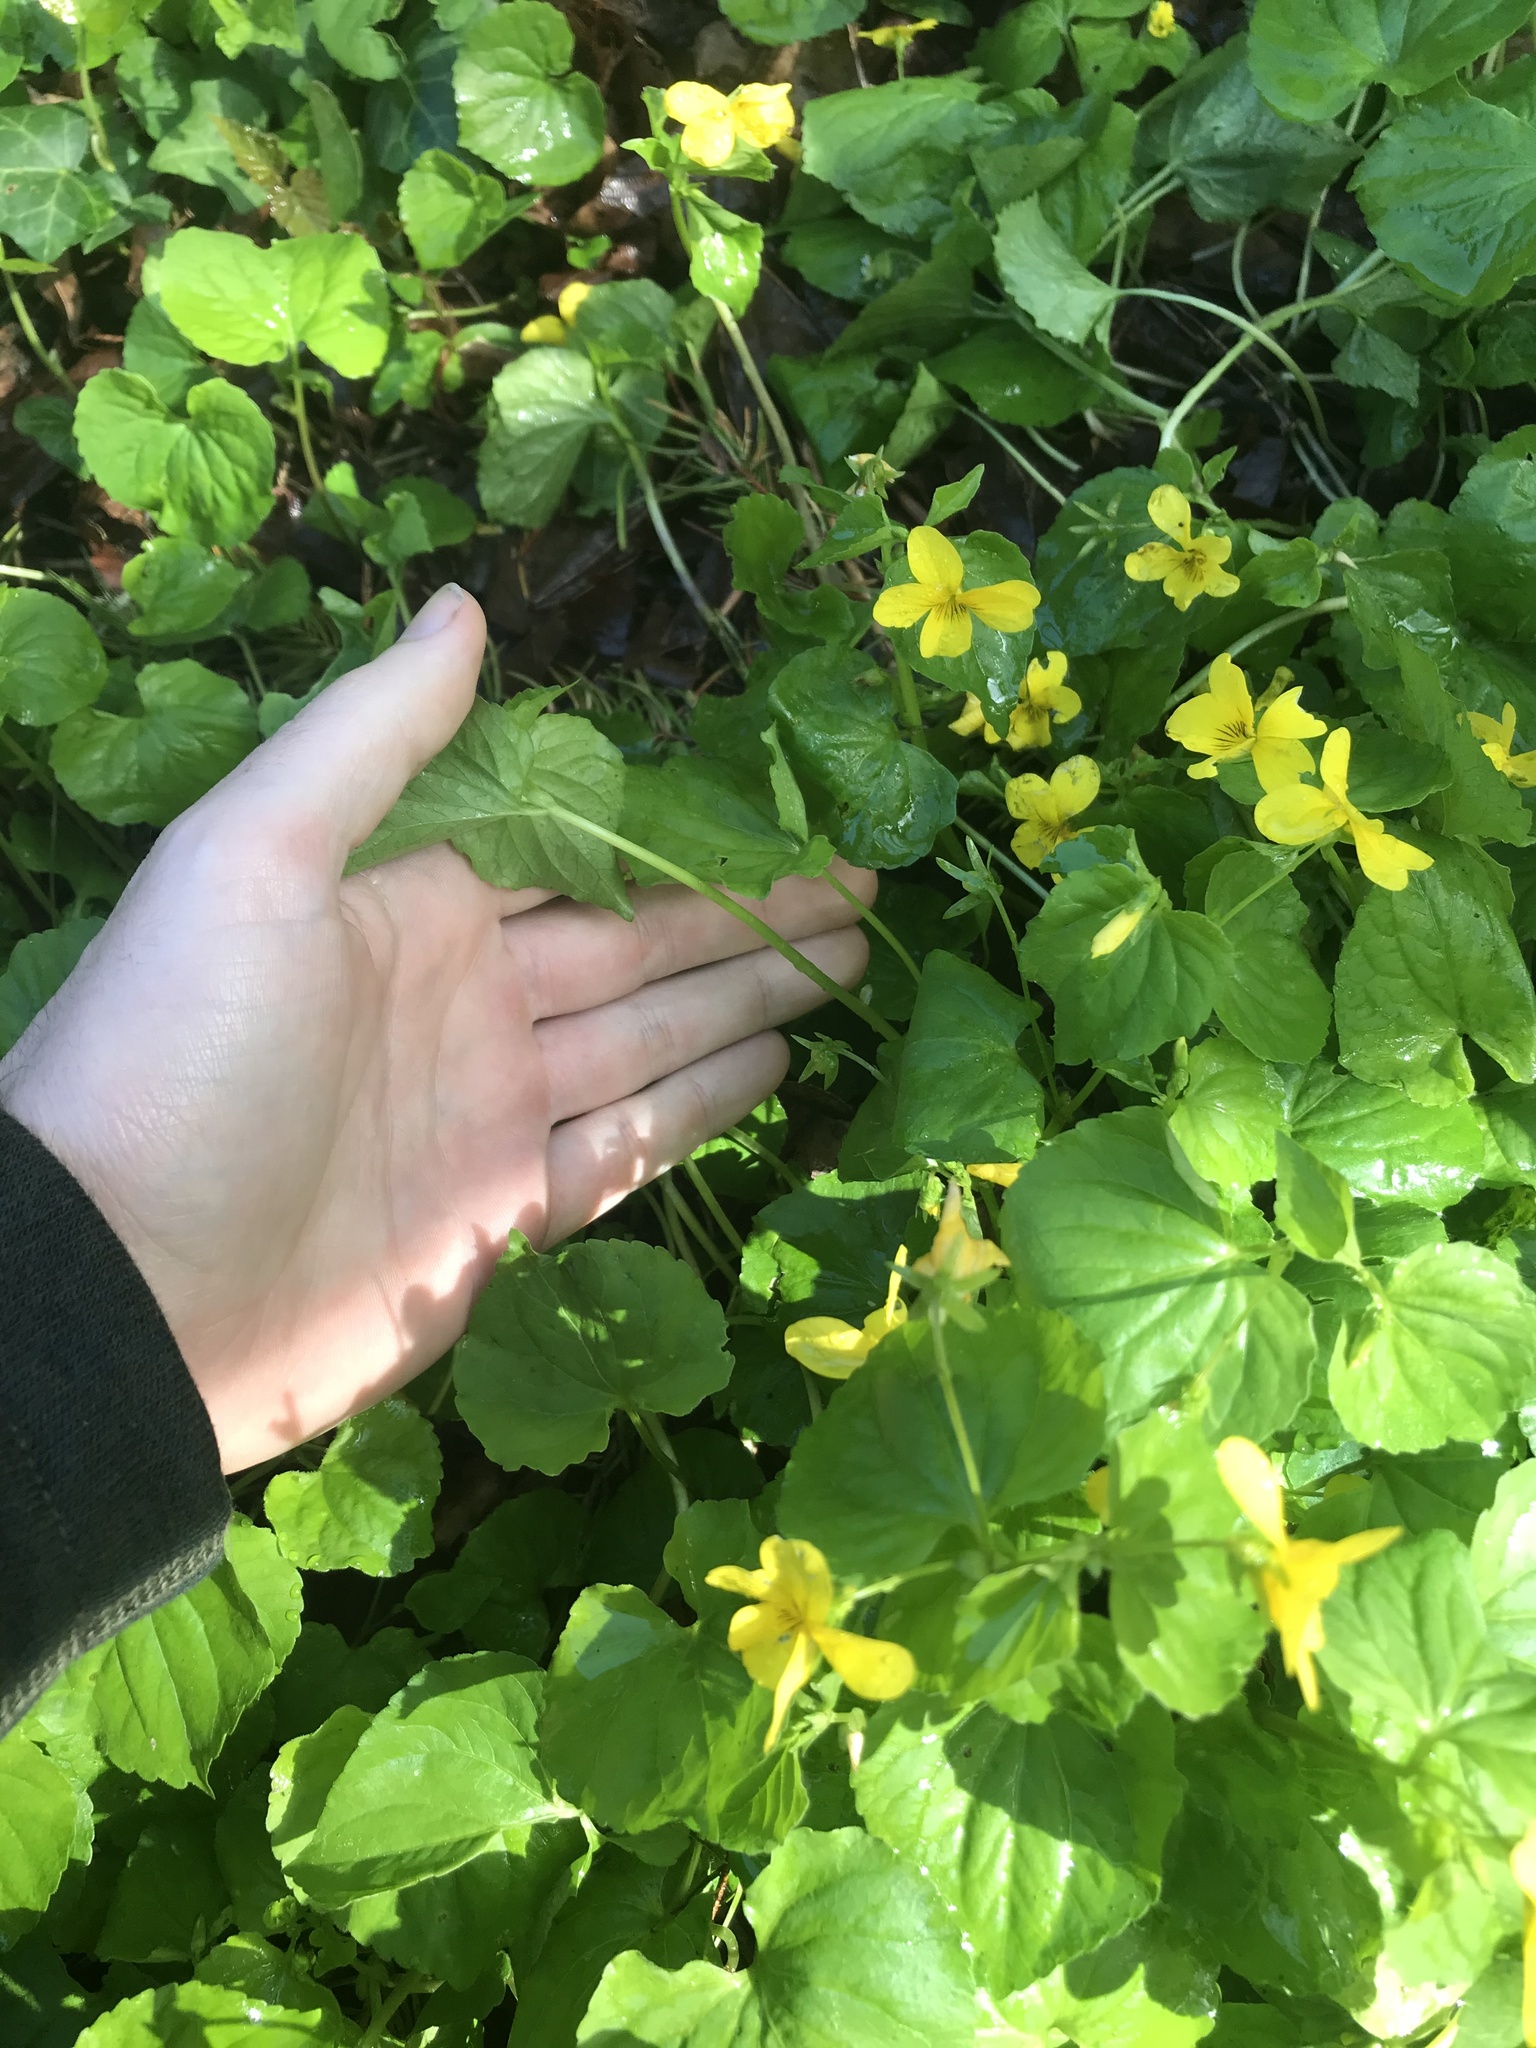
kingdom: Plantae
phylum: Tracheophyta
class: Magnoliopsida
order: Malpighiales
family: Violaceae
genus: Viola
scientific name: Viola glabella
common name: Stream violet
